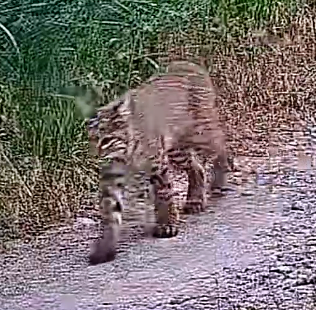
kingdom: Animalia
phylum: Chordata
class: Mammalia
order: Carnivora
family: Felidae
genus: Lynx
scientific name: Lynx rufus
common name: Bobcat
